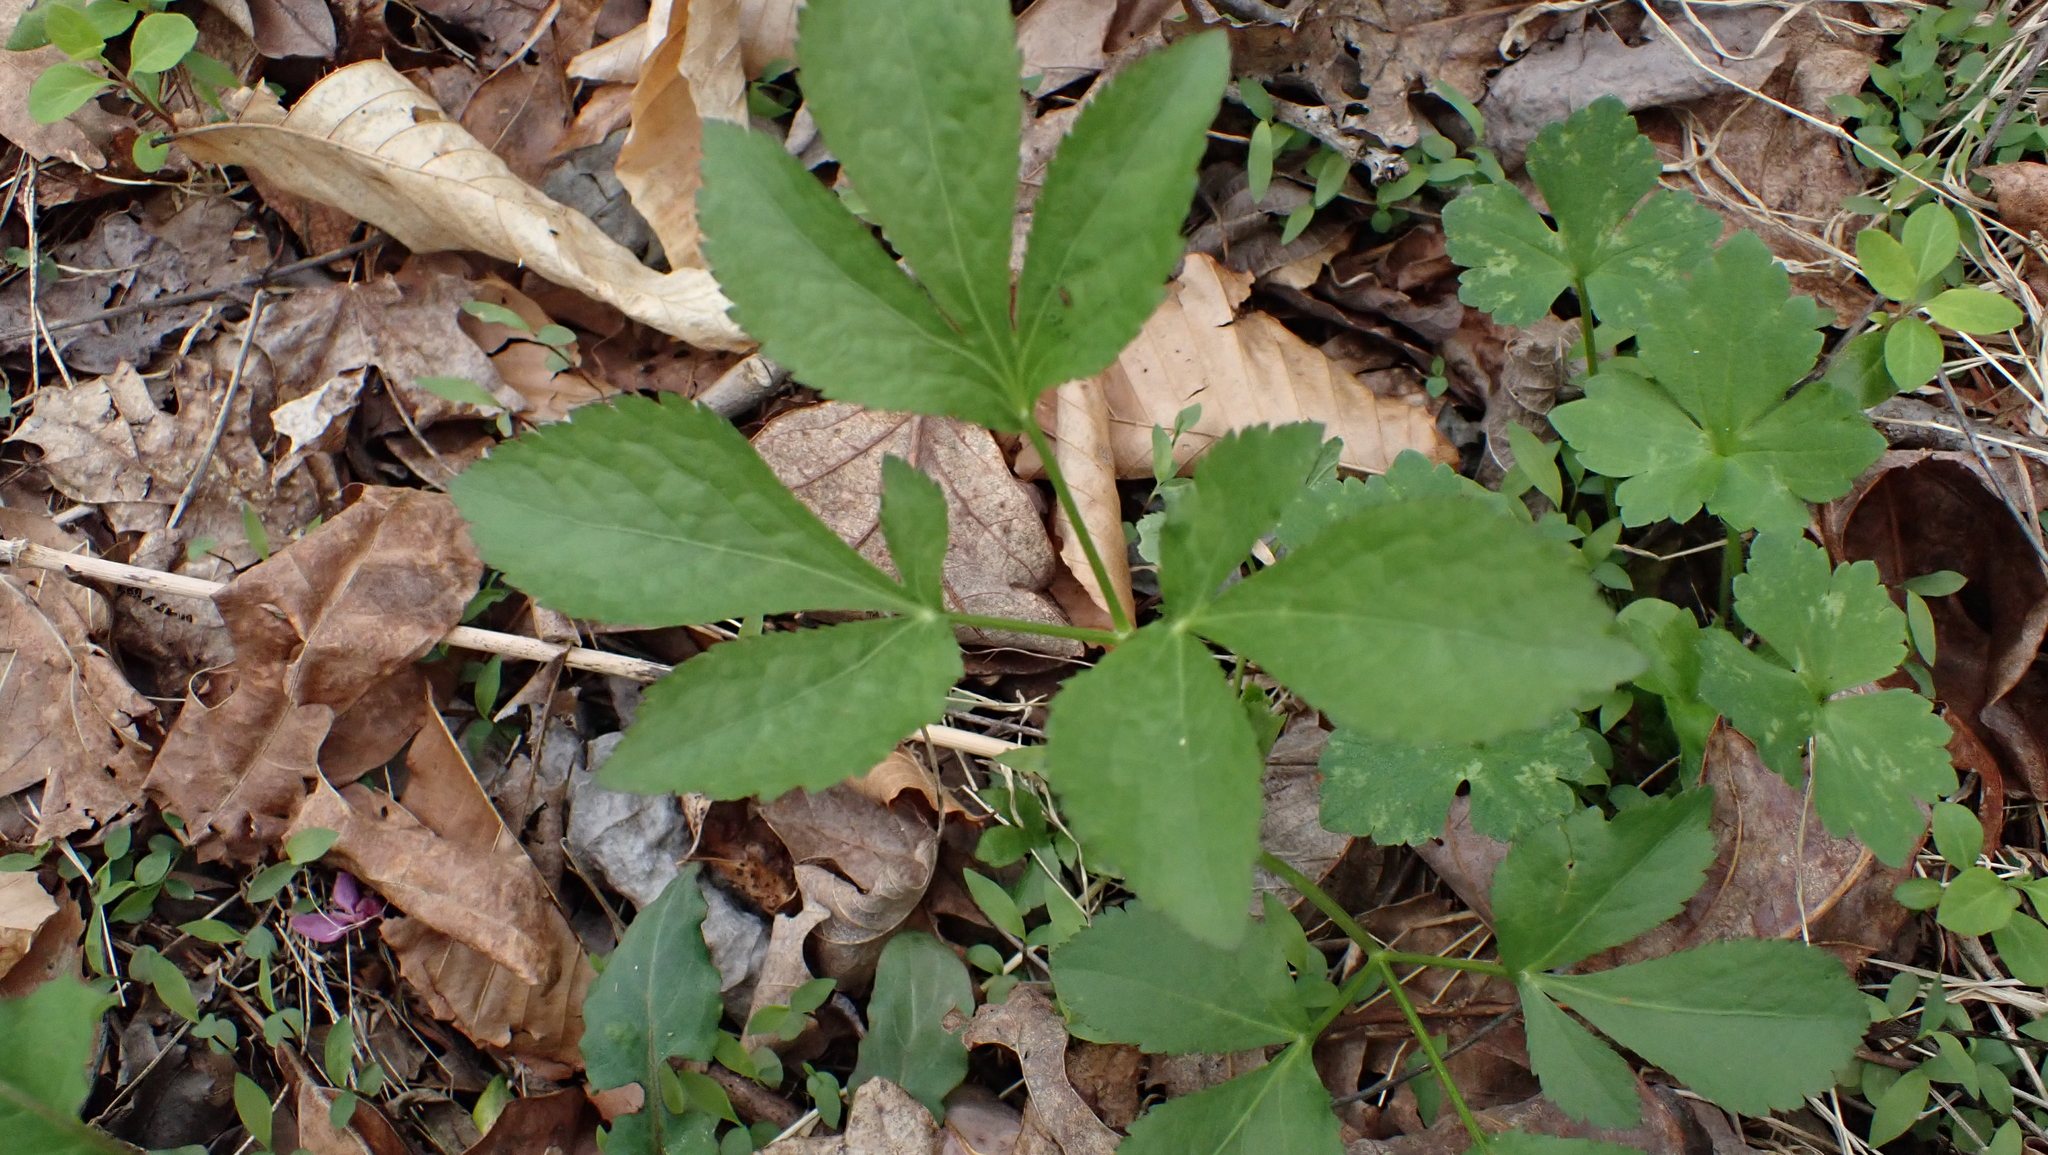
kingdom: Plantae
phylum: Tracheophyta
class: Magnoliopsida
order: Apiales
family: Apiaceae
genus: Cryptotaenia
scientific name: Cryptotaenia canadensis
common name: Honewort
